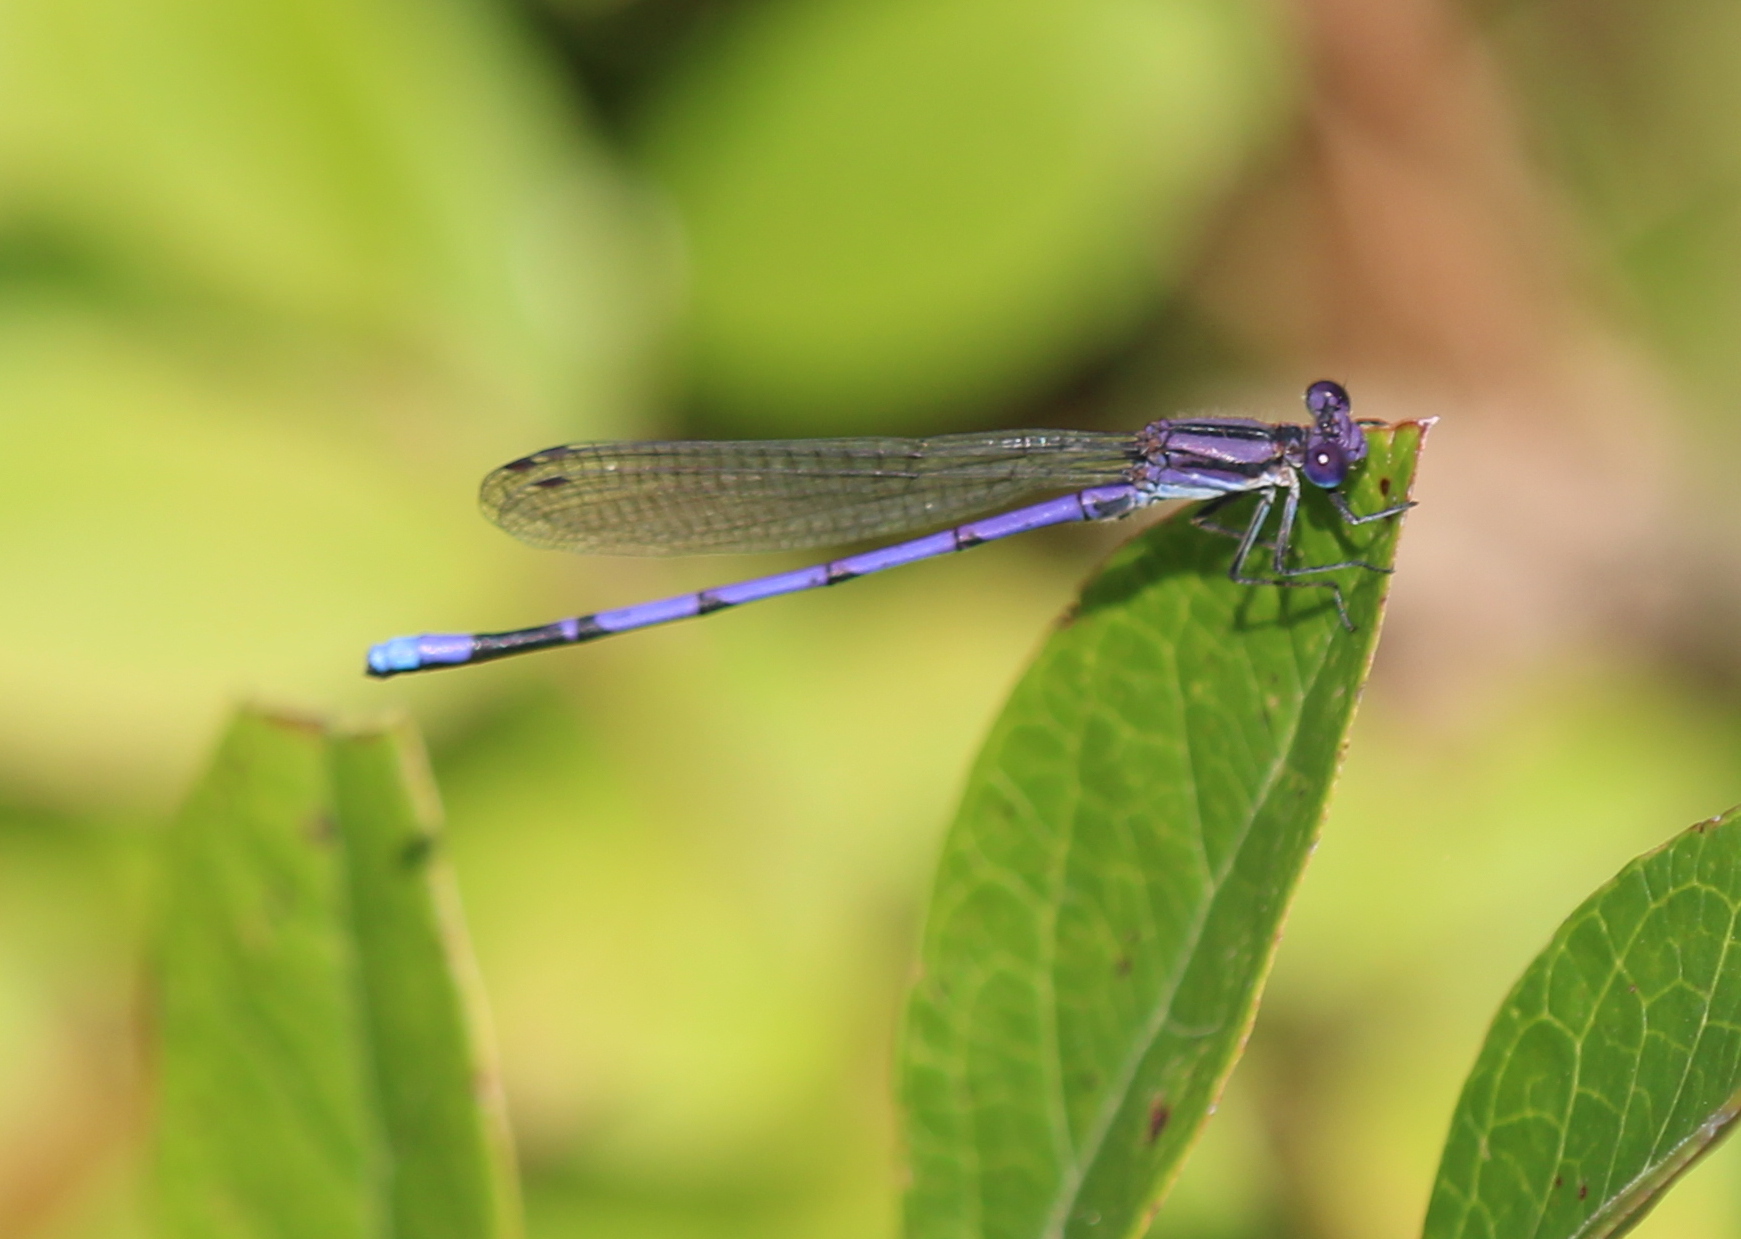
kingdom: Animalia
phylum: Arthropoda
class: Insecta
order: Odonata
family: Coenagrionidae
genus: Argia
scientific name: Argia fumipennis
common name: Variable dancer
